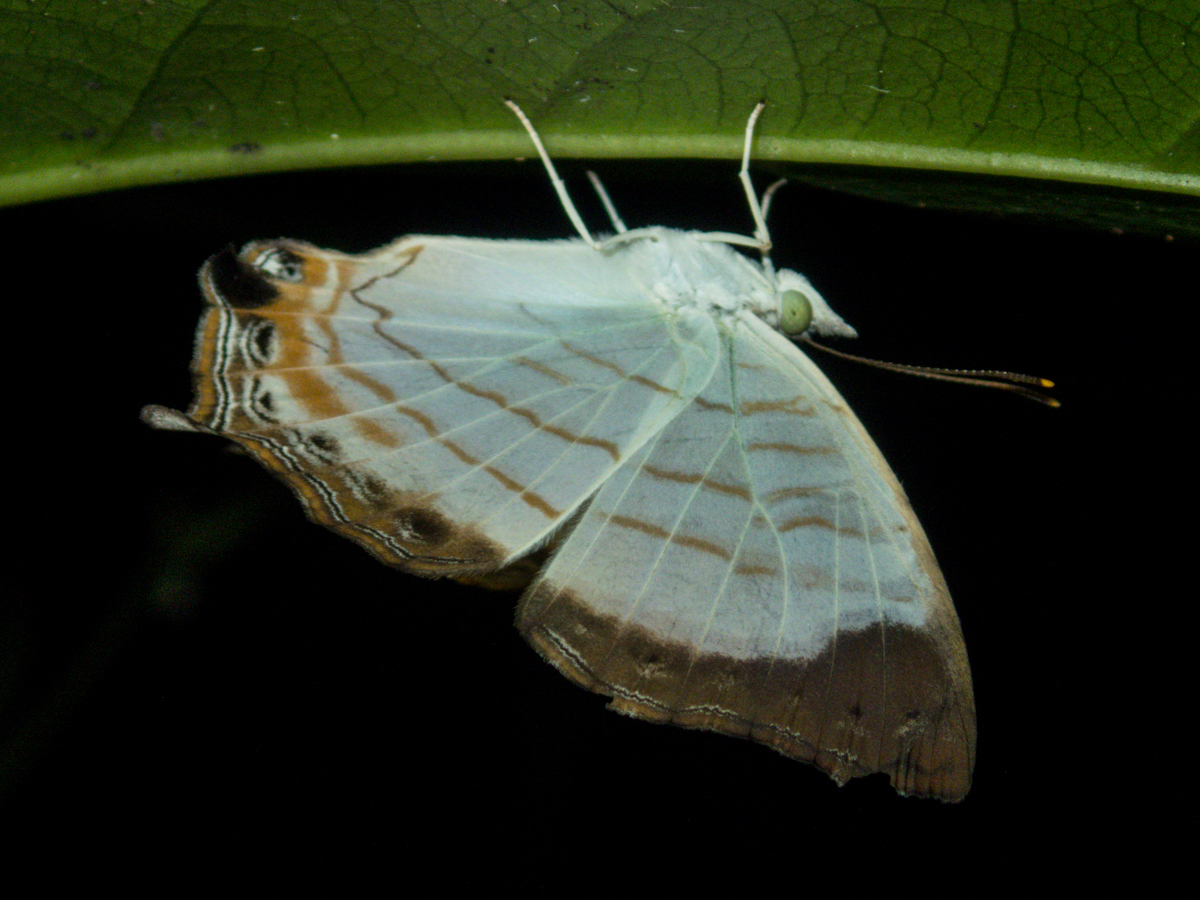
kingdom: Animalia
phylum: Arthropoda
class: Insecta
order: Lepidoptera
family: Nymphalidae
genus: Cyrestis
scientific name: Cyrestis themire
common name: Little mapwing
